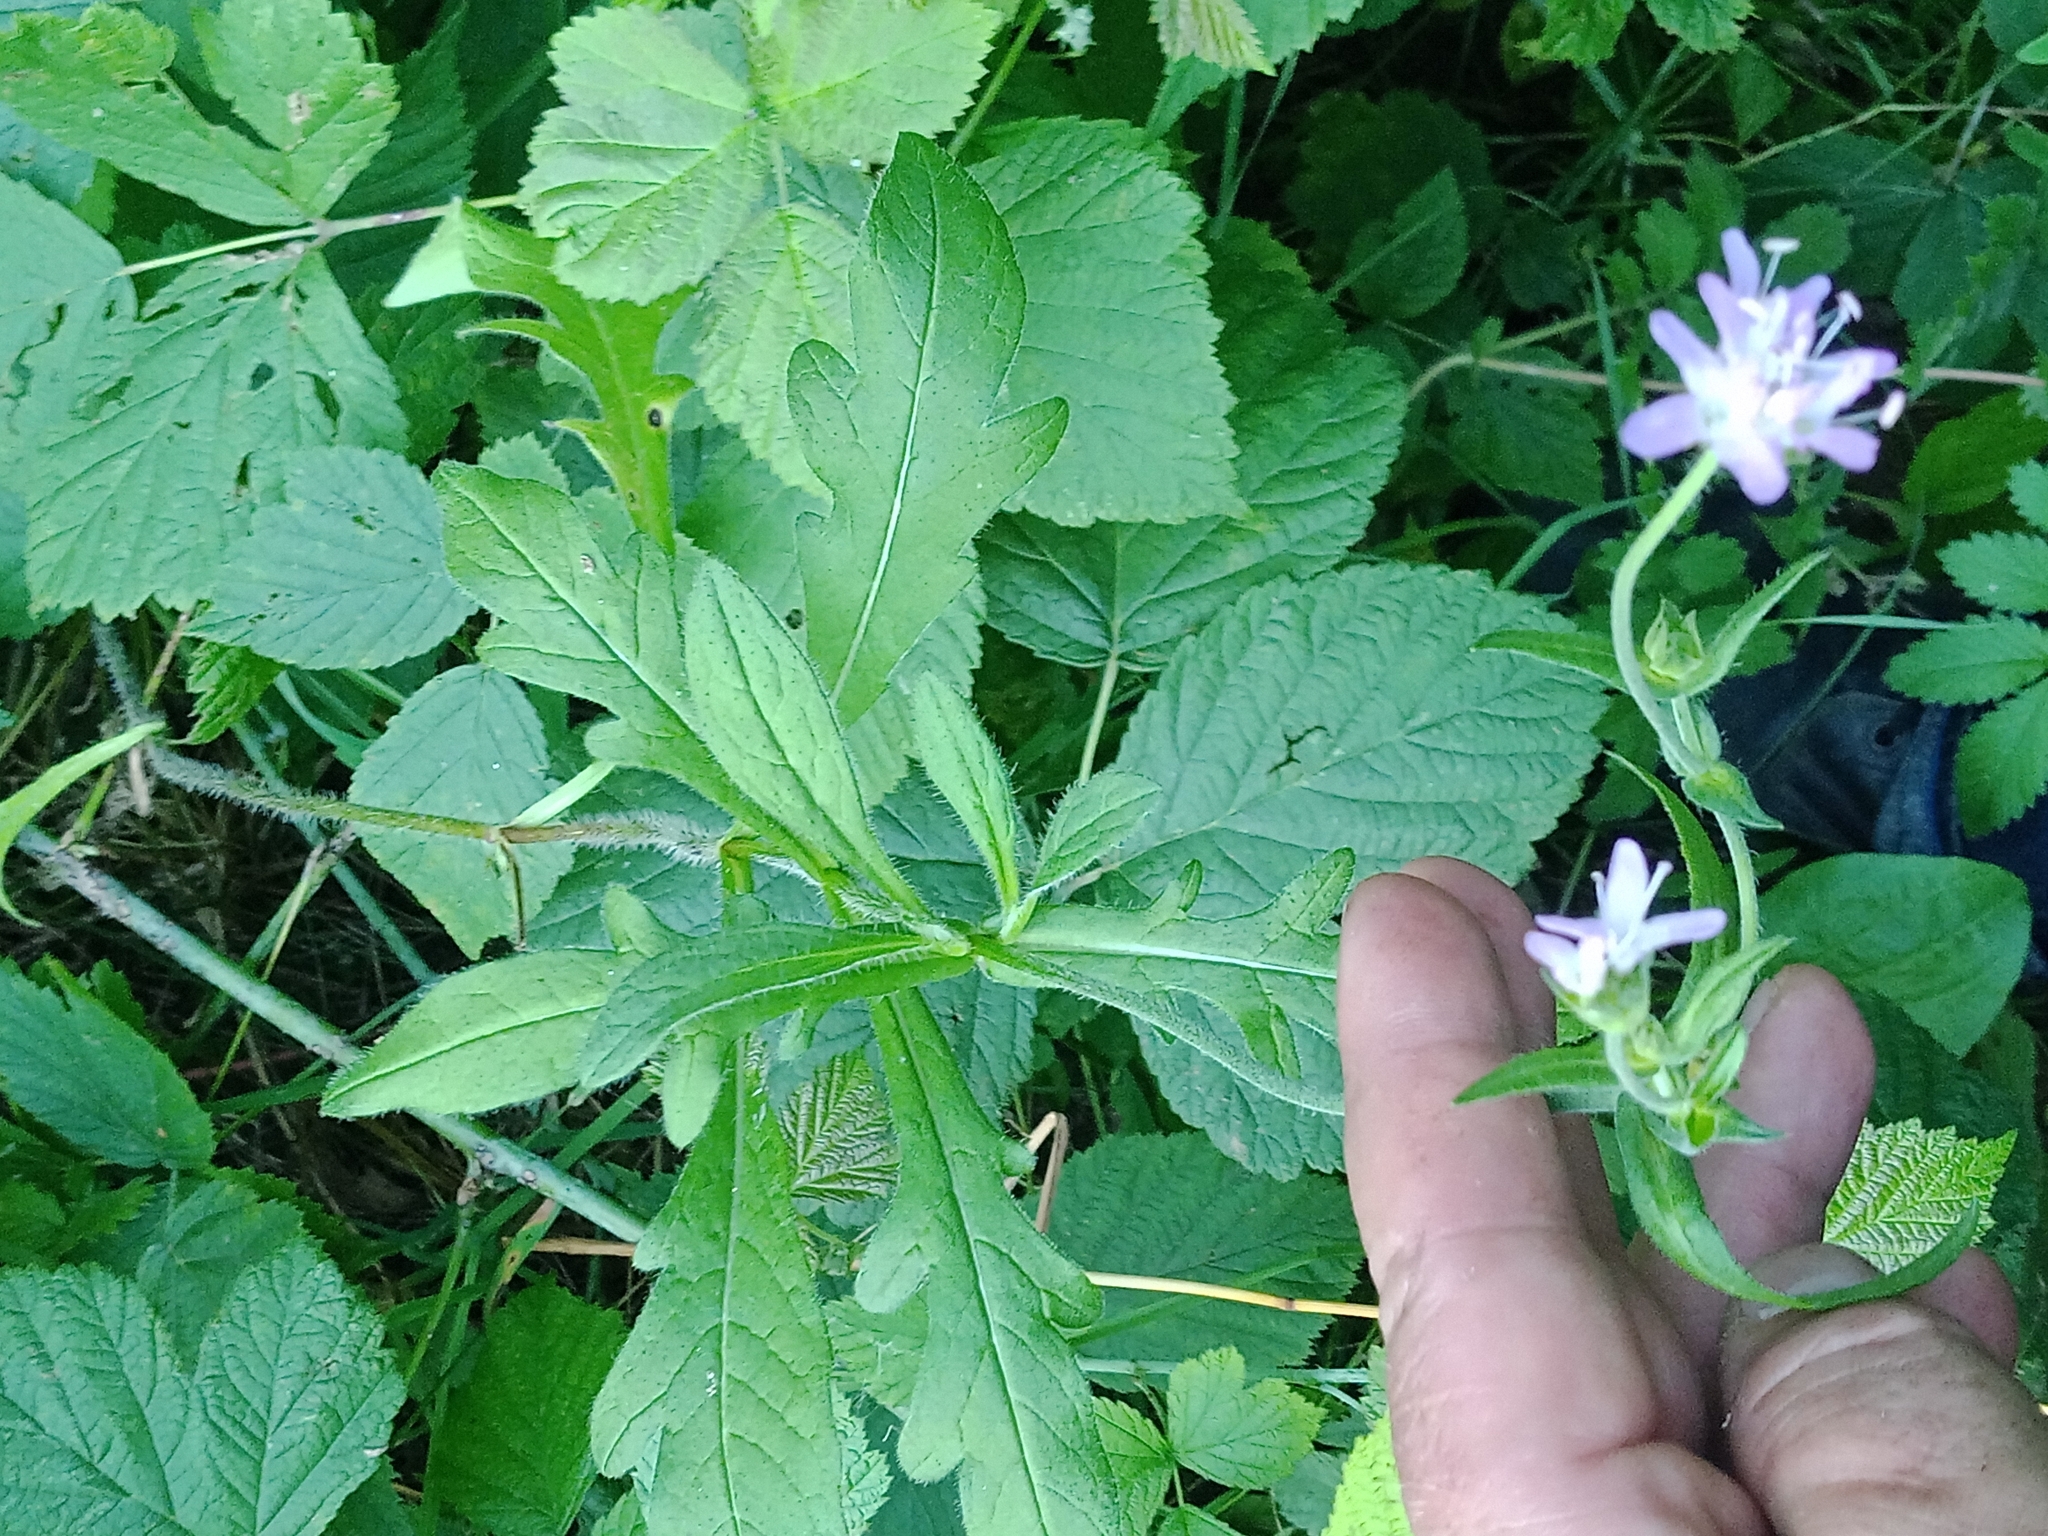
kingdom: Plantae
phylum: Tracheophyta
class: Magnoliopsida
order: Dipsacales
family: Caprifoliaceae
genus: Knautia
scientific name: Knautia arvensis
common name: Field scabiosa
